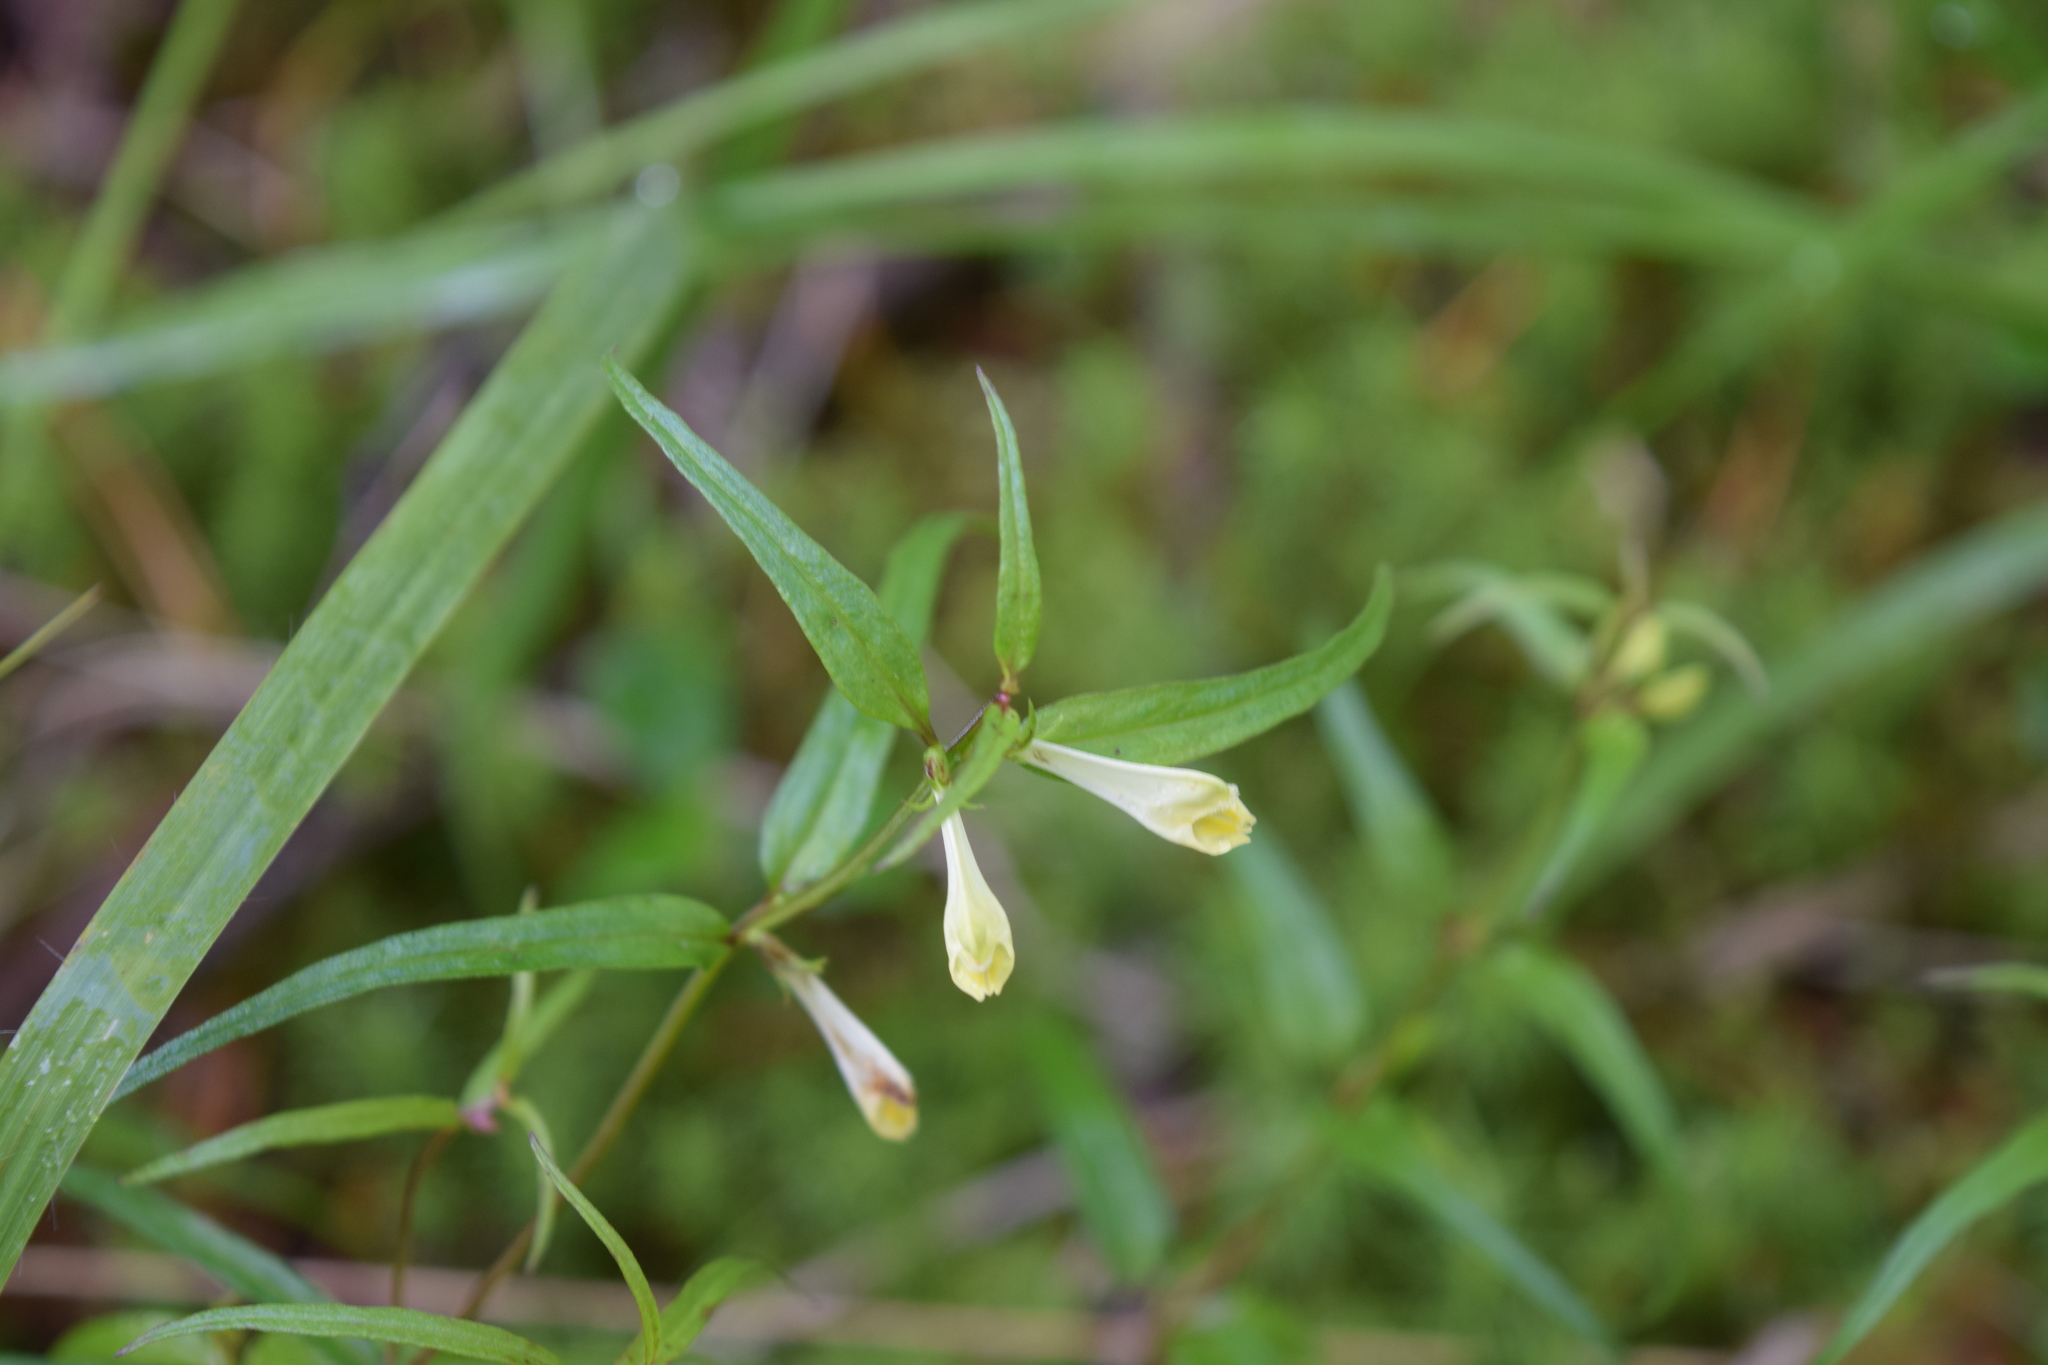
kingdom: Plantae
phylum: Tracheophyta
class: Magnoliopsida
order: Lamiales
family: Orobanchaceae
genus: Melampyrum
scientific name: Melampyrum pratense
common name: Common cow-wheat
